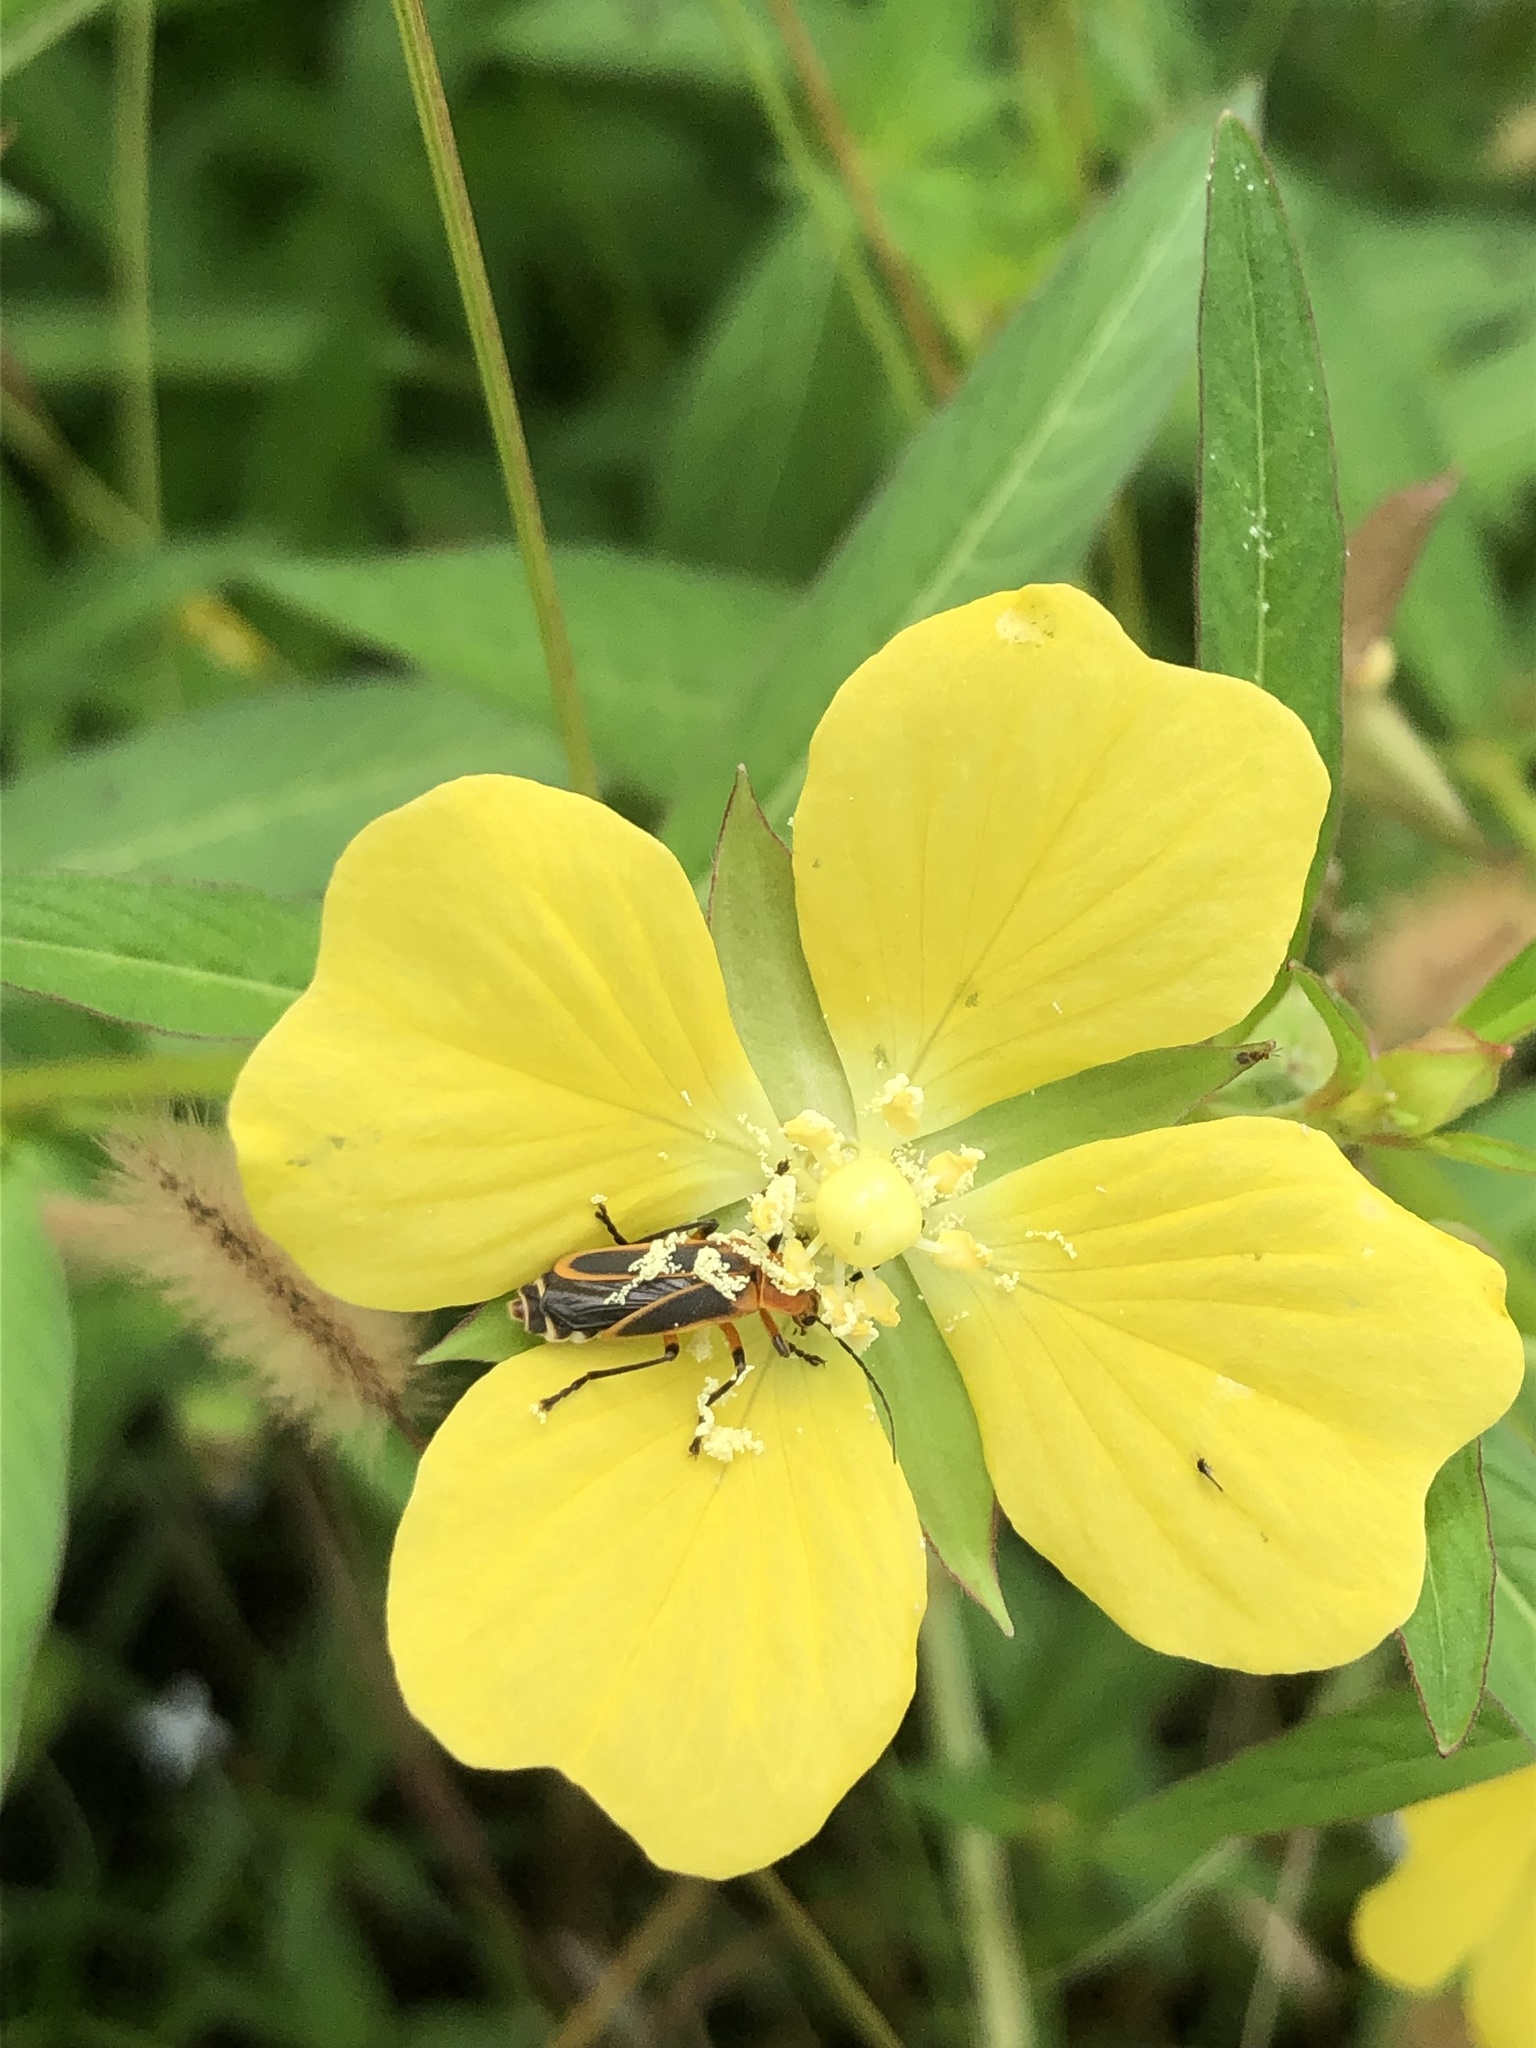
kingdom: Animalia
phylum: Arthropoda
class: Insecta
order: Coleoptera
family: Cantharidae
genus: Chauliognathus
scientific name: Chauliognathus marginatus
